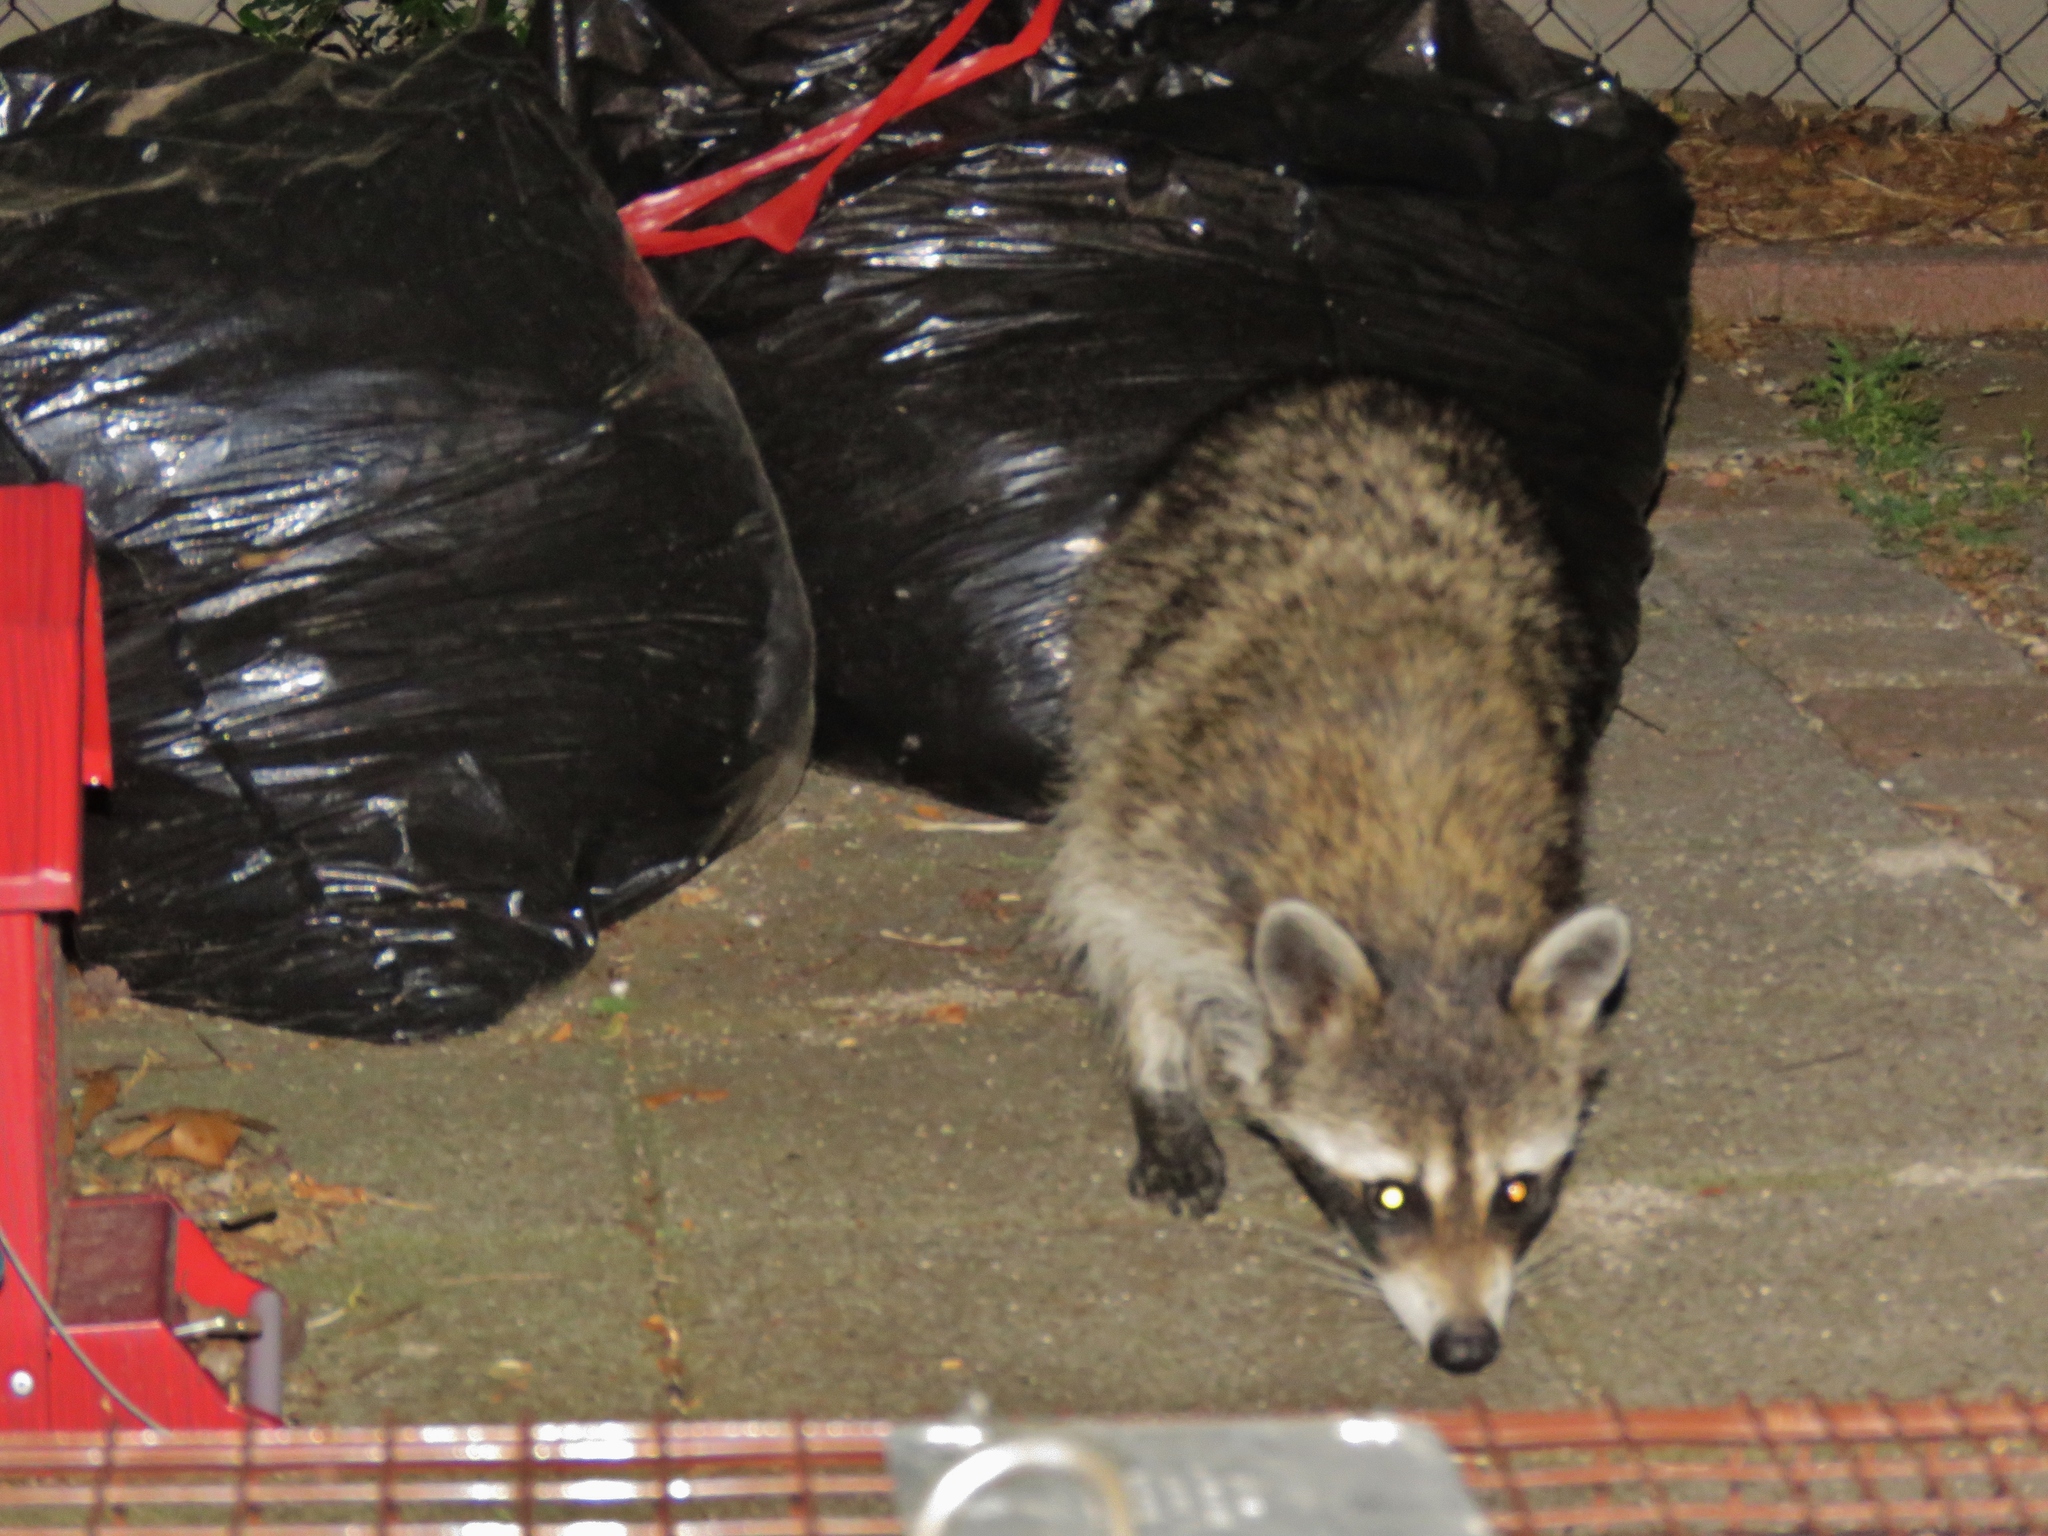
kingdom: Animalia
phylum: Chordata
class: Mammalia
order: Carnivora
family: Procyonidae
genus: Procyon
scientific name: Procyon lotor
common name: Raccoon
